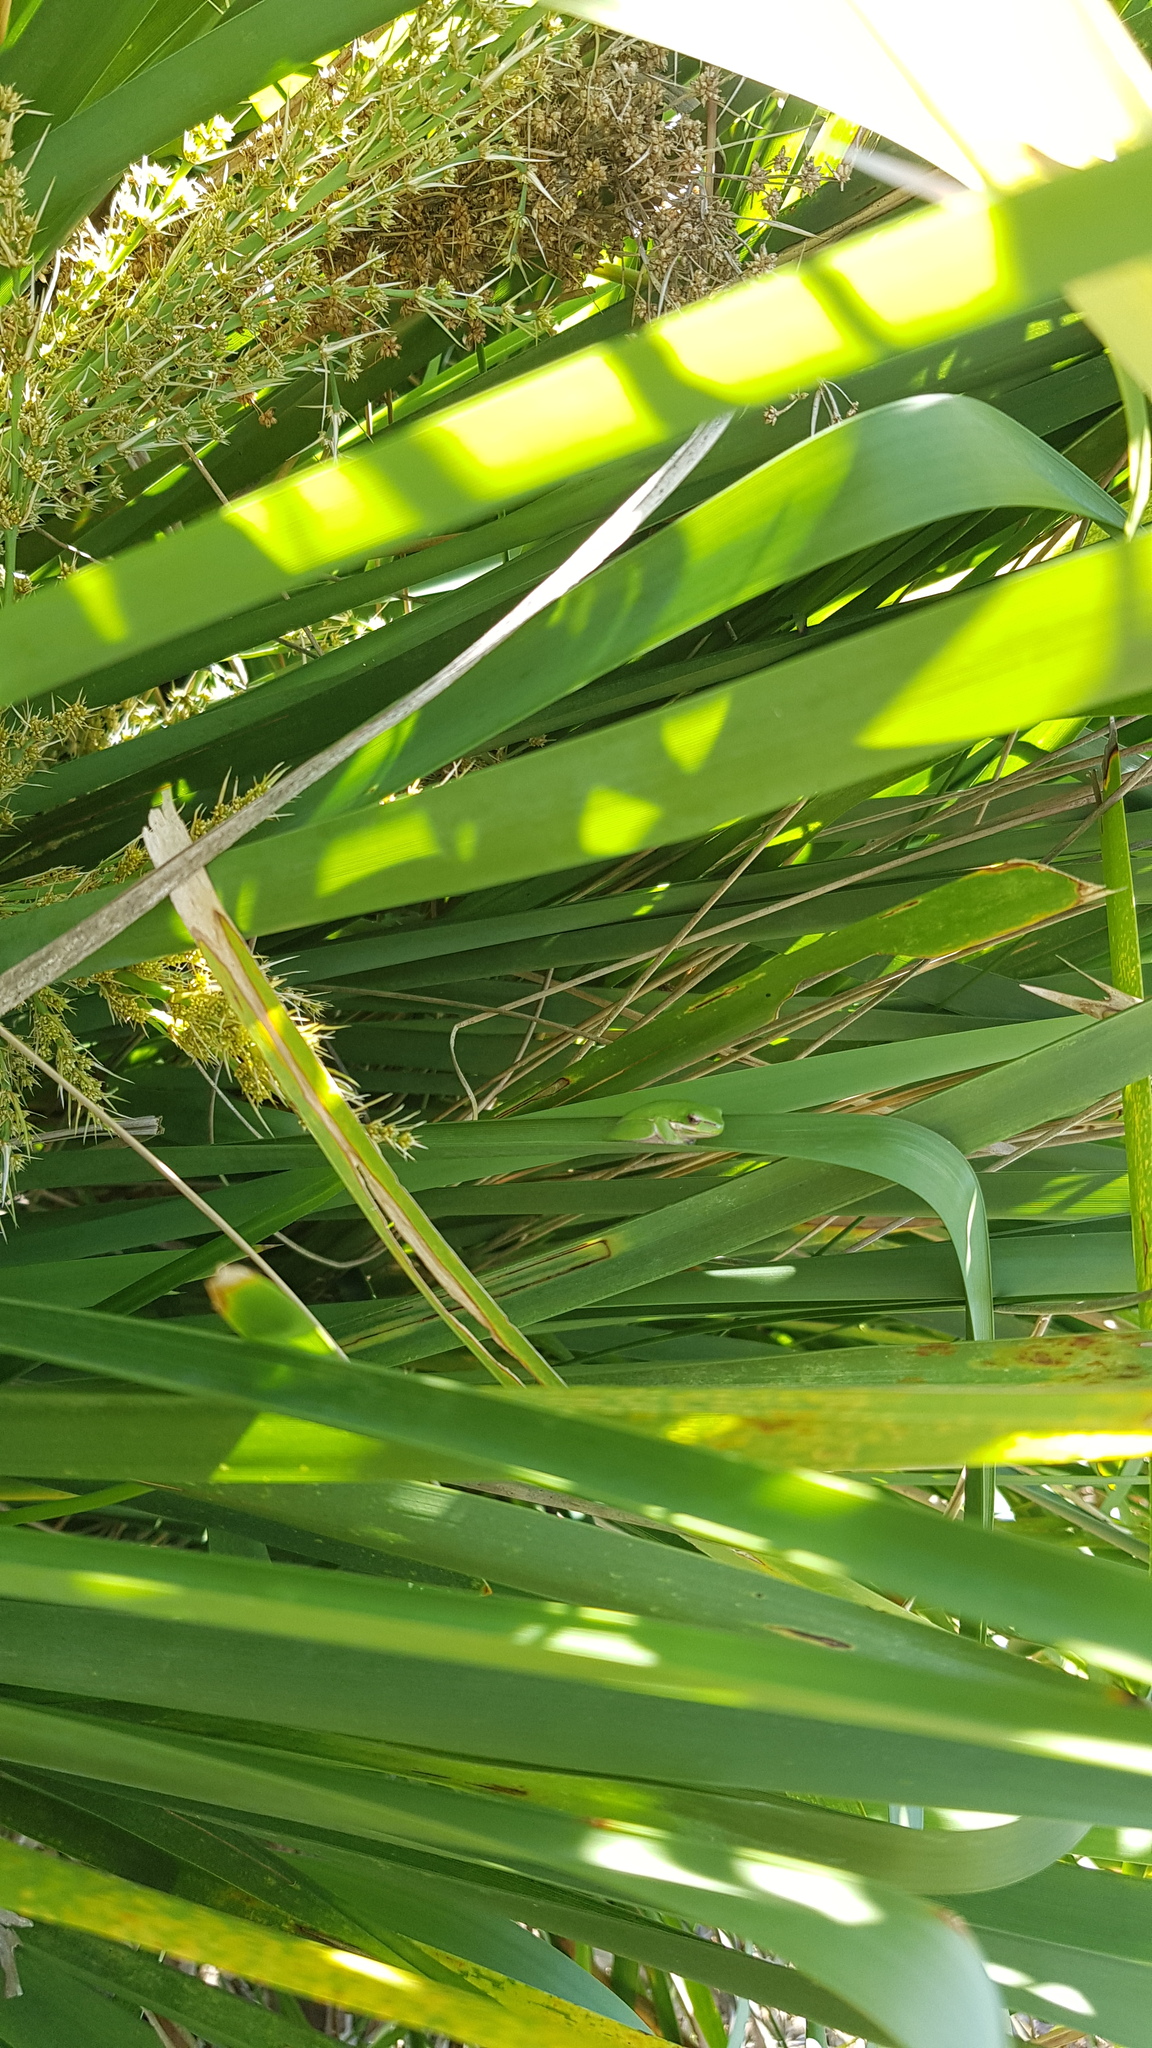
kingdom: Animalia
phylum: Chordata
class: Amphibia
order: Anura
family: Pelodryadidae
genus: Litoria
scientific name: Litoria fallax
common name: Eastern dwarf treefrog
